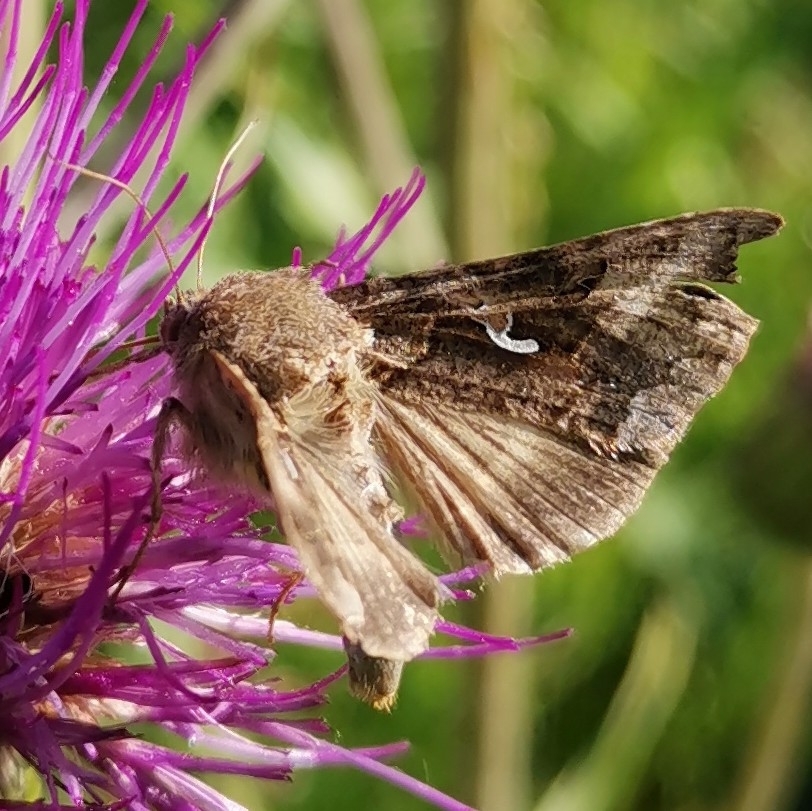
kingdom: Animalia
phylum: Arthropoda
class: Insecta
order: Lepidoptera
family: Noctuidae
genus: Autographa
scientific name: Autographa gamma
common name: Silver y
